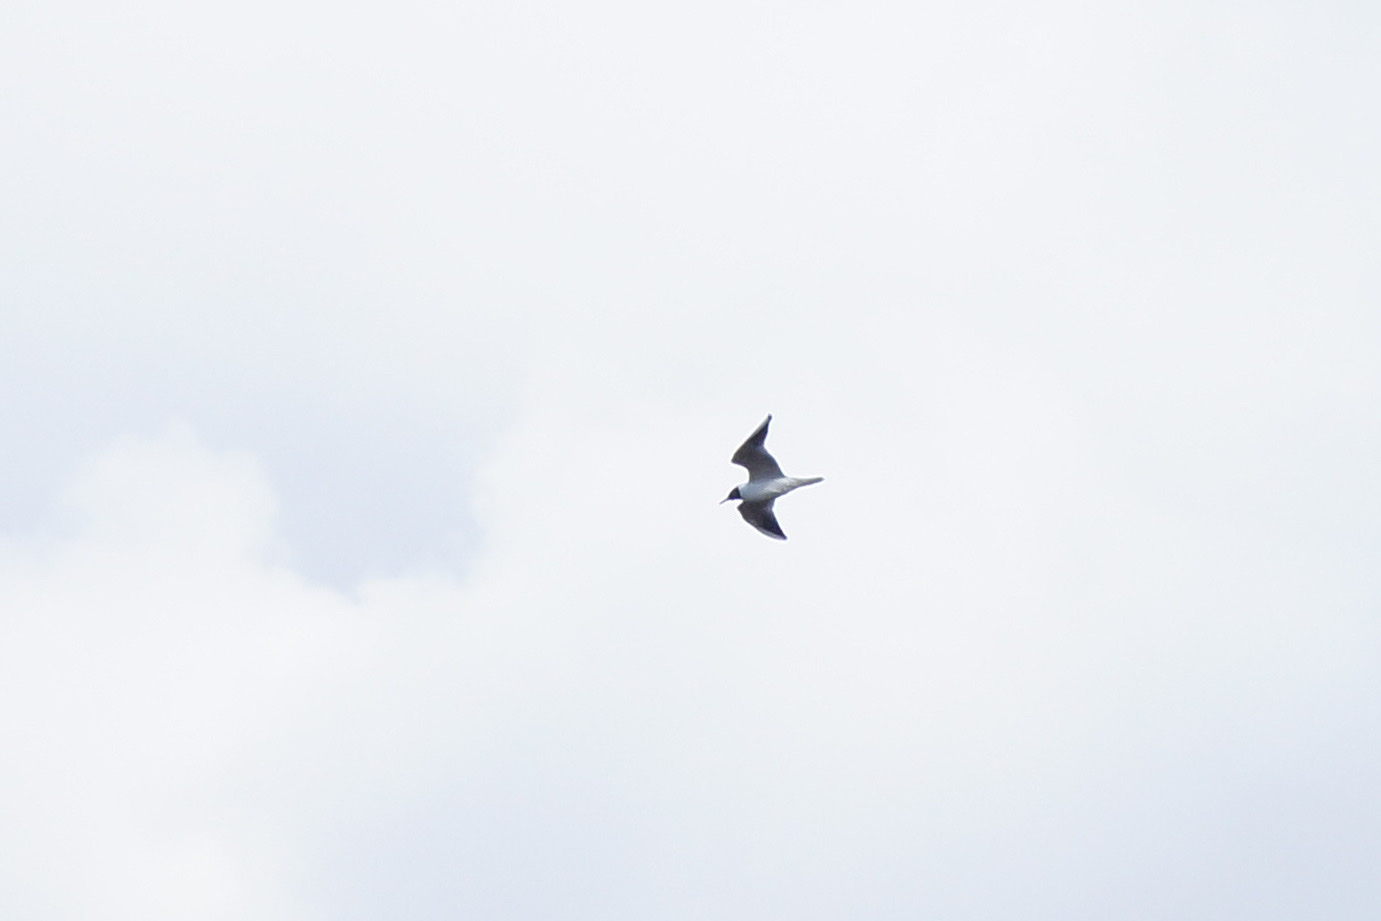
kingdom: Animalia
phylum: Chordata
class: Aves
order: Charadriiformes
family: Laridae
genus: Chroicocephalus
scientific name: Chroicocephalus ridibundus
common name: Black-headed gull
